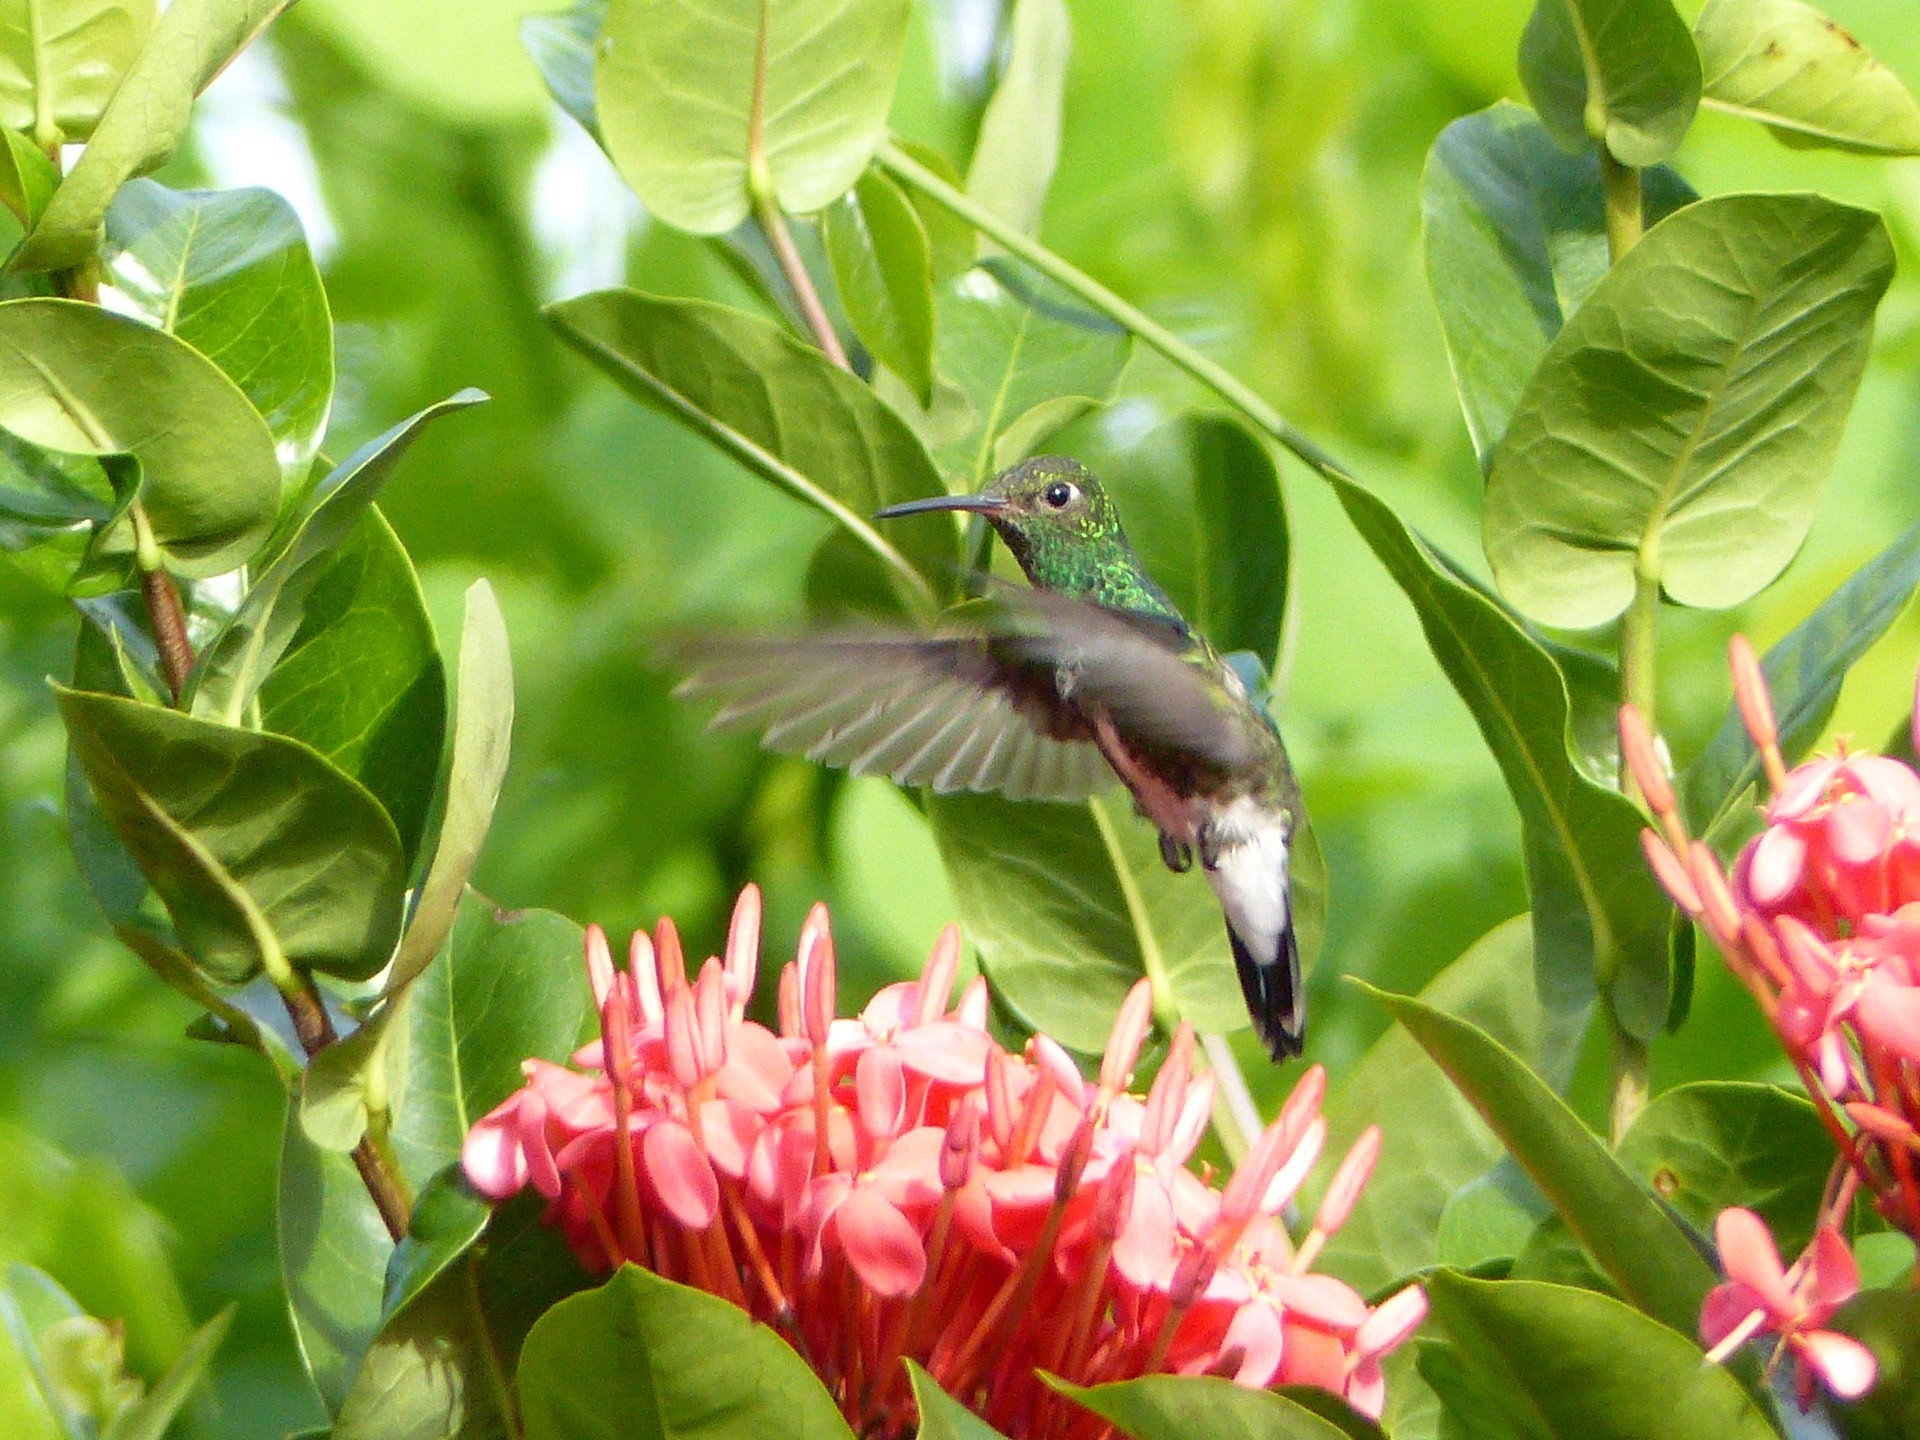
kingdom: Animalia
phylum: Chordata
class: Aves
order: Apodiformes
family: Trochilidae
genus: Chionomesa
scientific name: Chionomesa fimbriata
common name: Glittering-throated emerald
